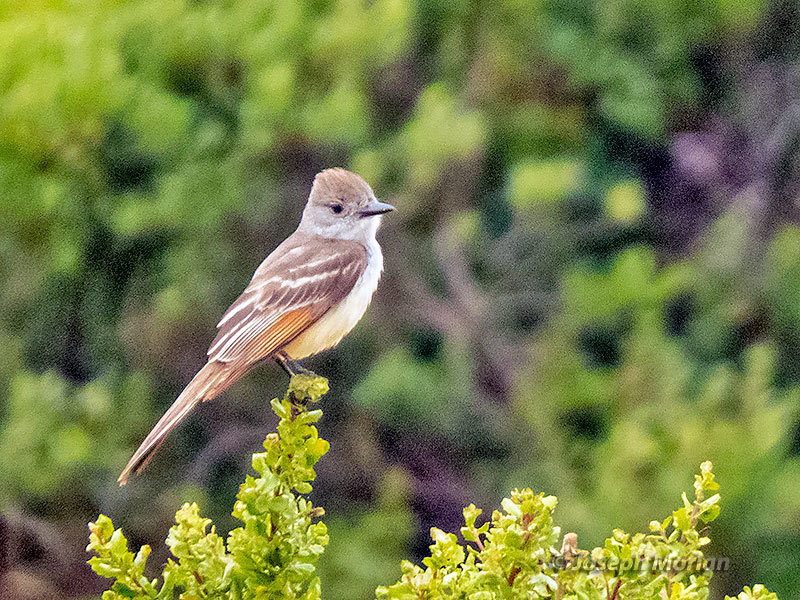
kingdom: Animalia
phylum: Chordata
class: Aves
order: Passeriformes
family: Tyrannidae
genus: Myiarchus
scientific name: Myiarchus cinerascens
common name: Ash-throated flycatcher
